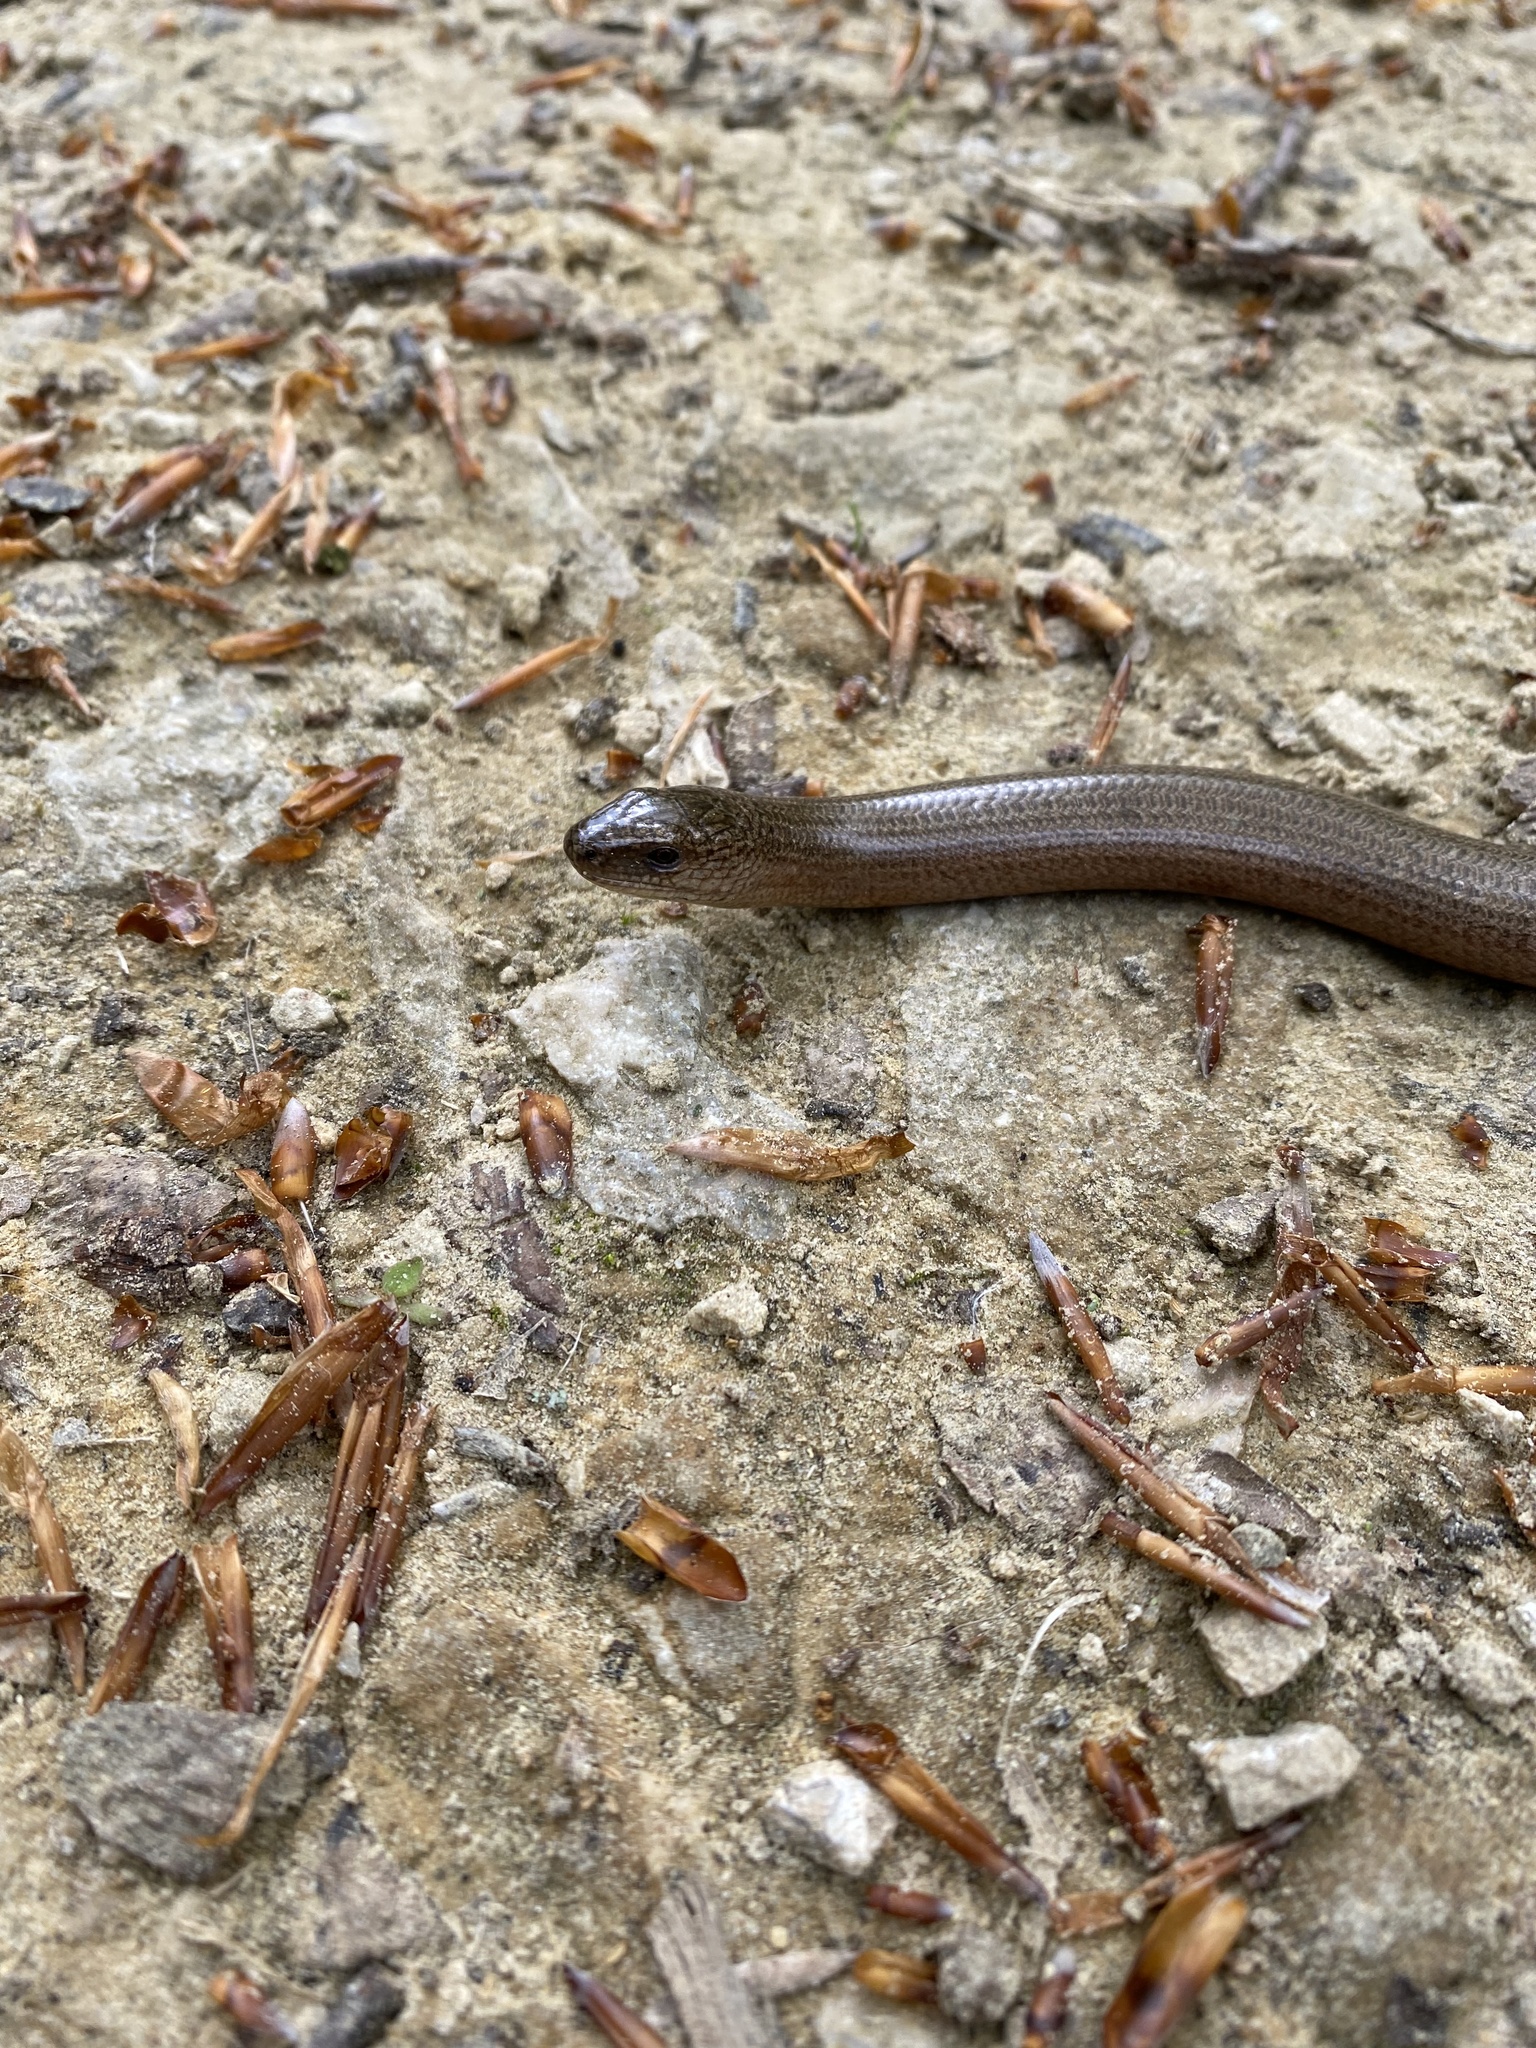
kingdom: Animalia
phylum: Chordata
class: Squamata
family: Anguidae
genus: Anguis
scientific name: Anguis fragilis
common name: Slow worm
